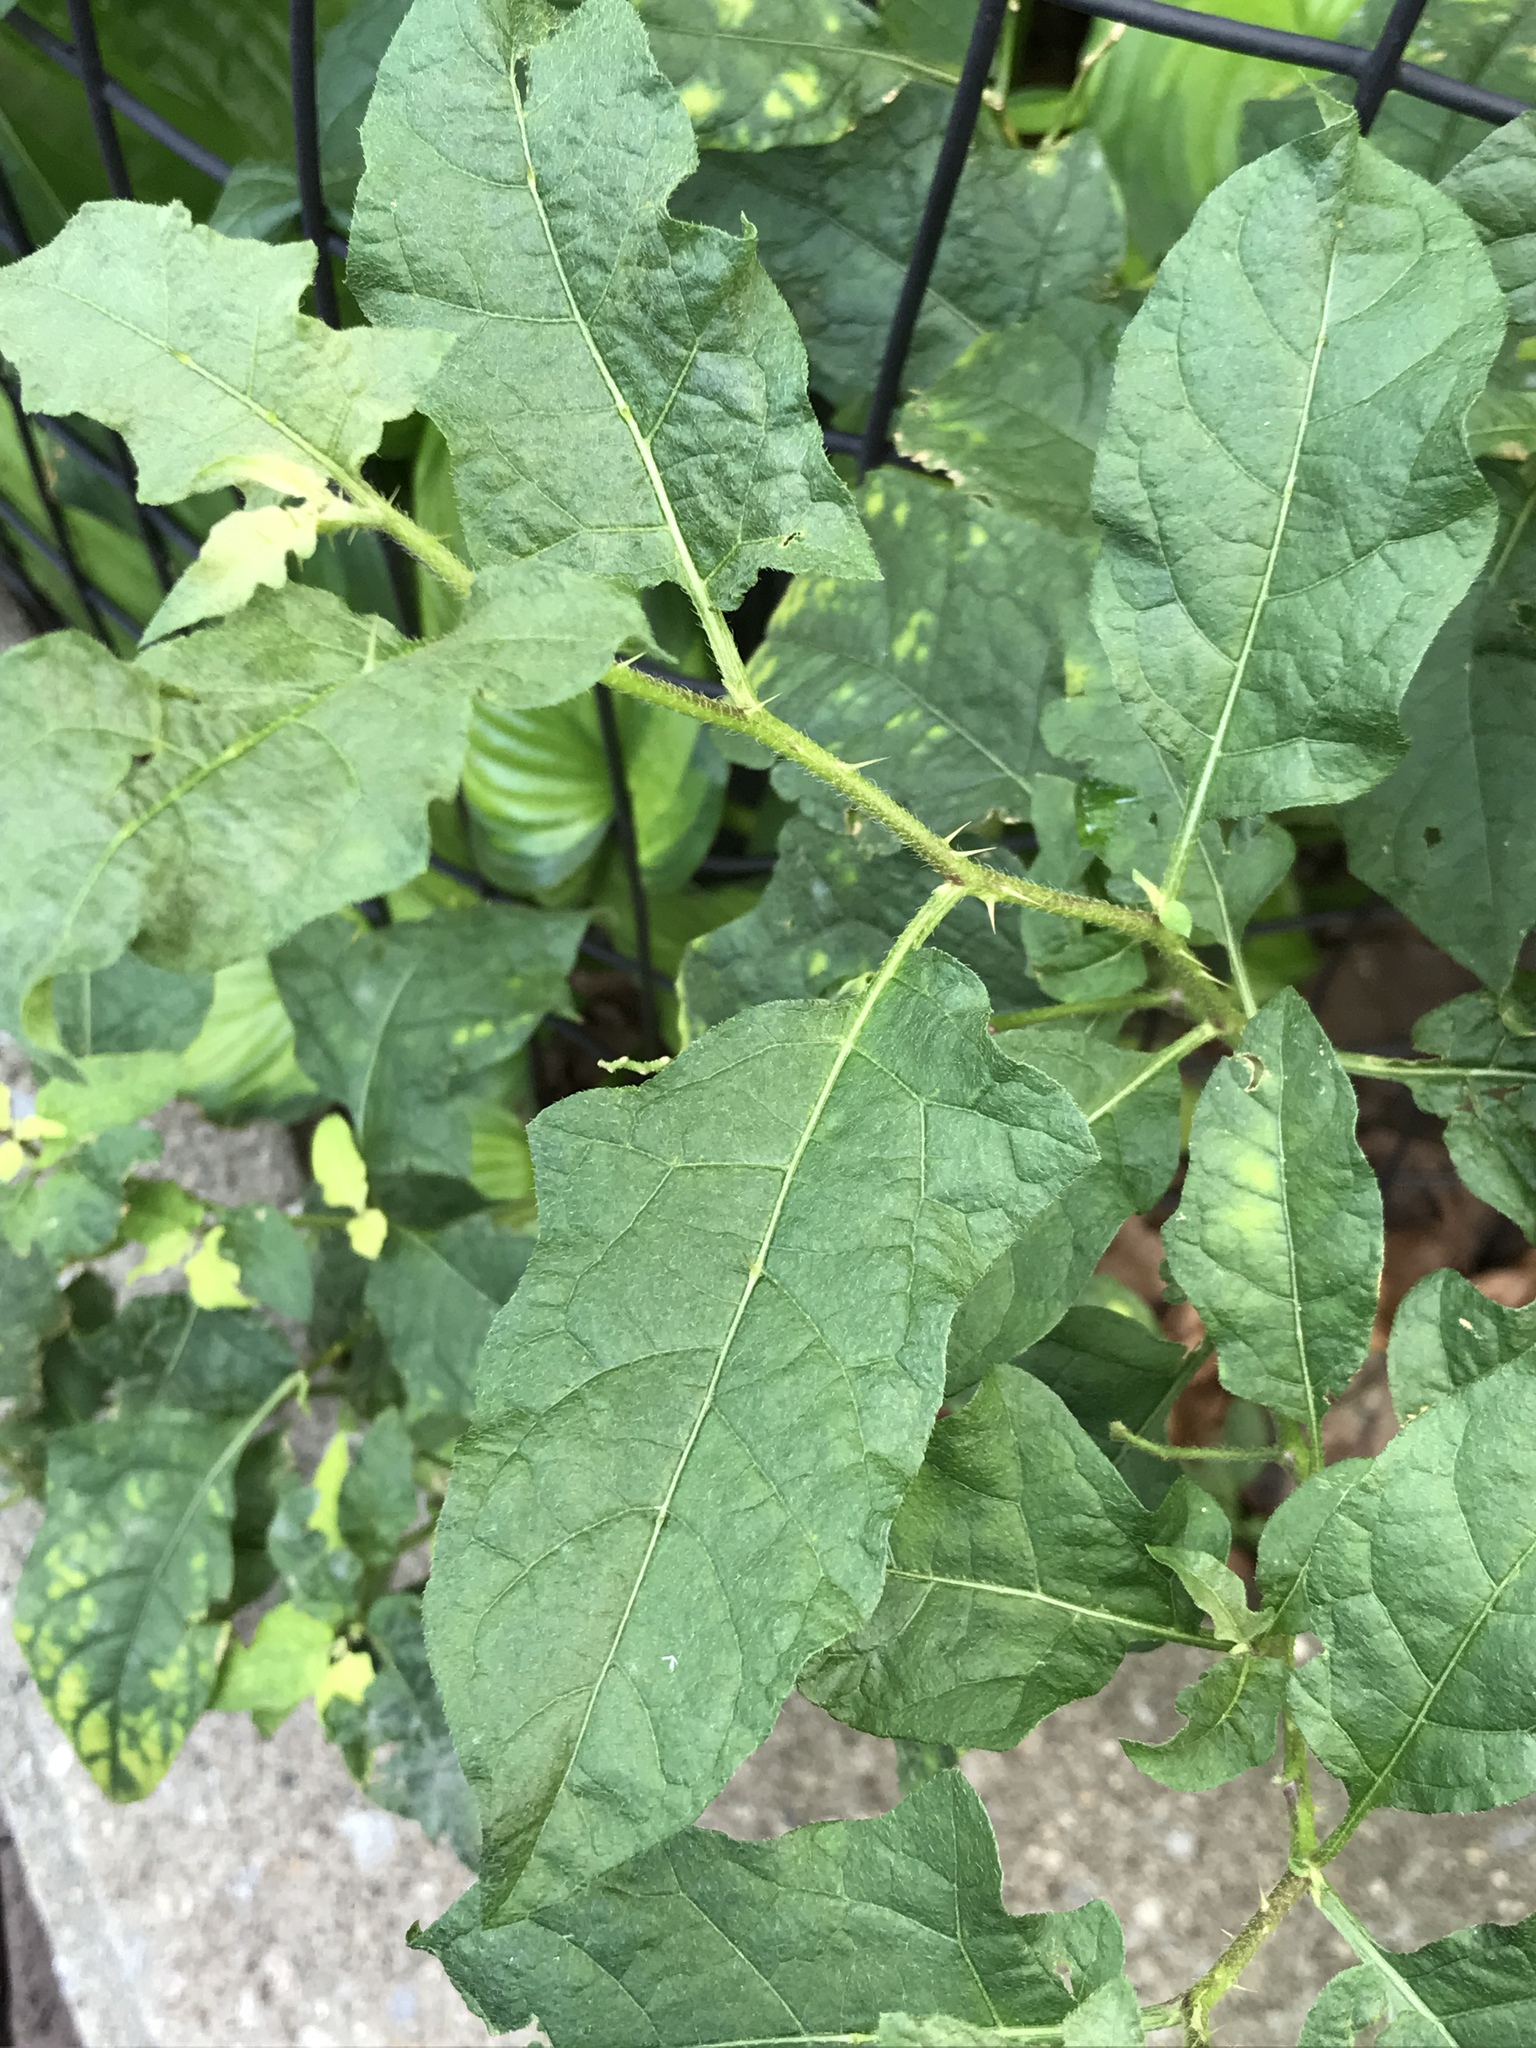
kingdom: Plantae
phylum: Tracheophyta
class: Magnoliopsida
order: Solanales
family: Solanaceae
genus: Solanum
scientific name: Solanum carolinense
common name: Horse-nettle
